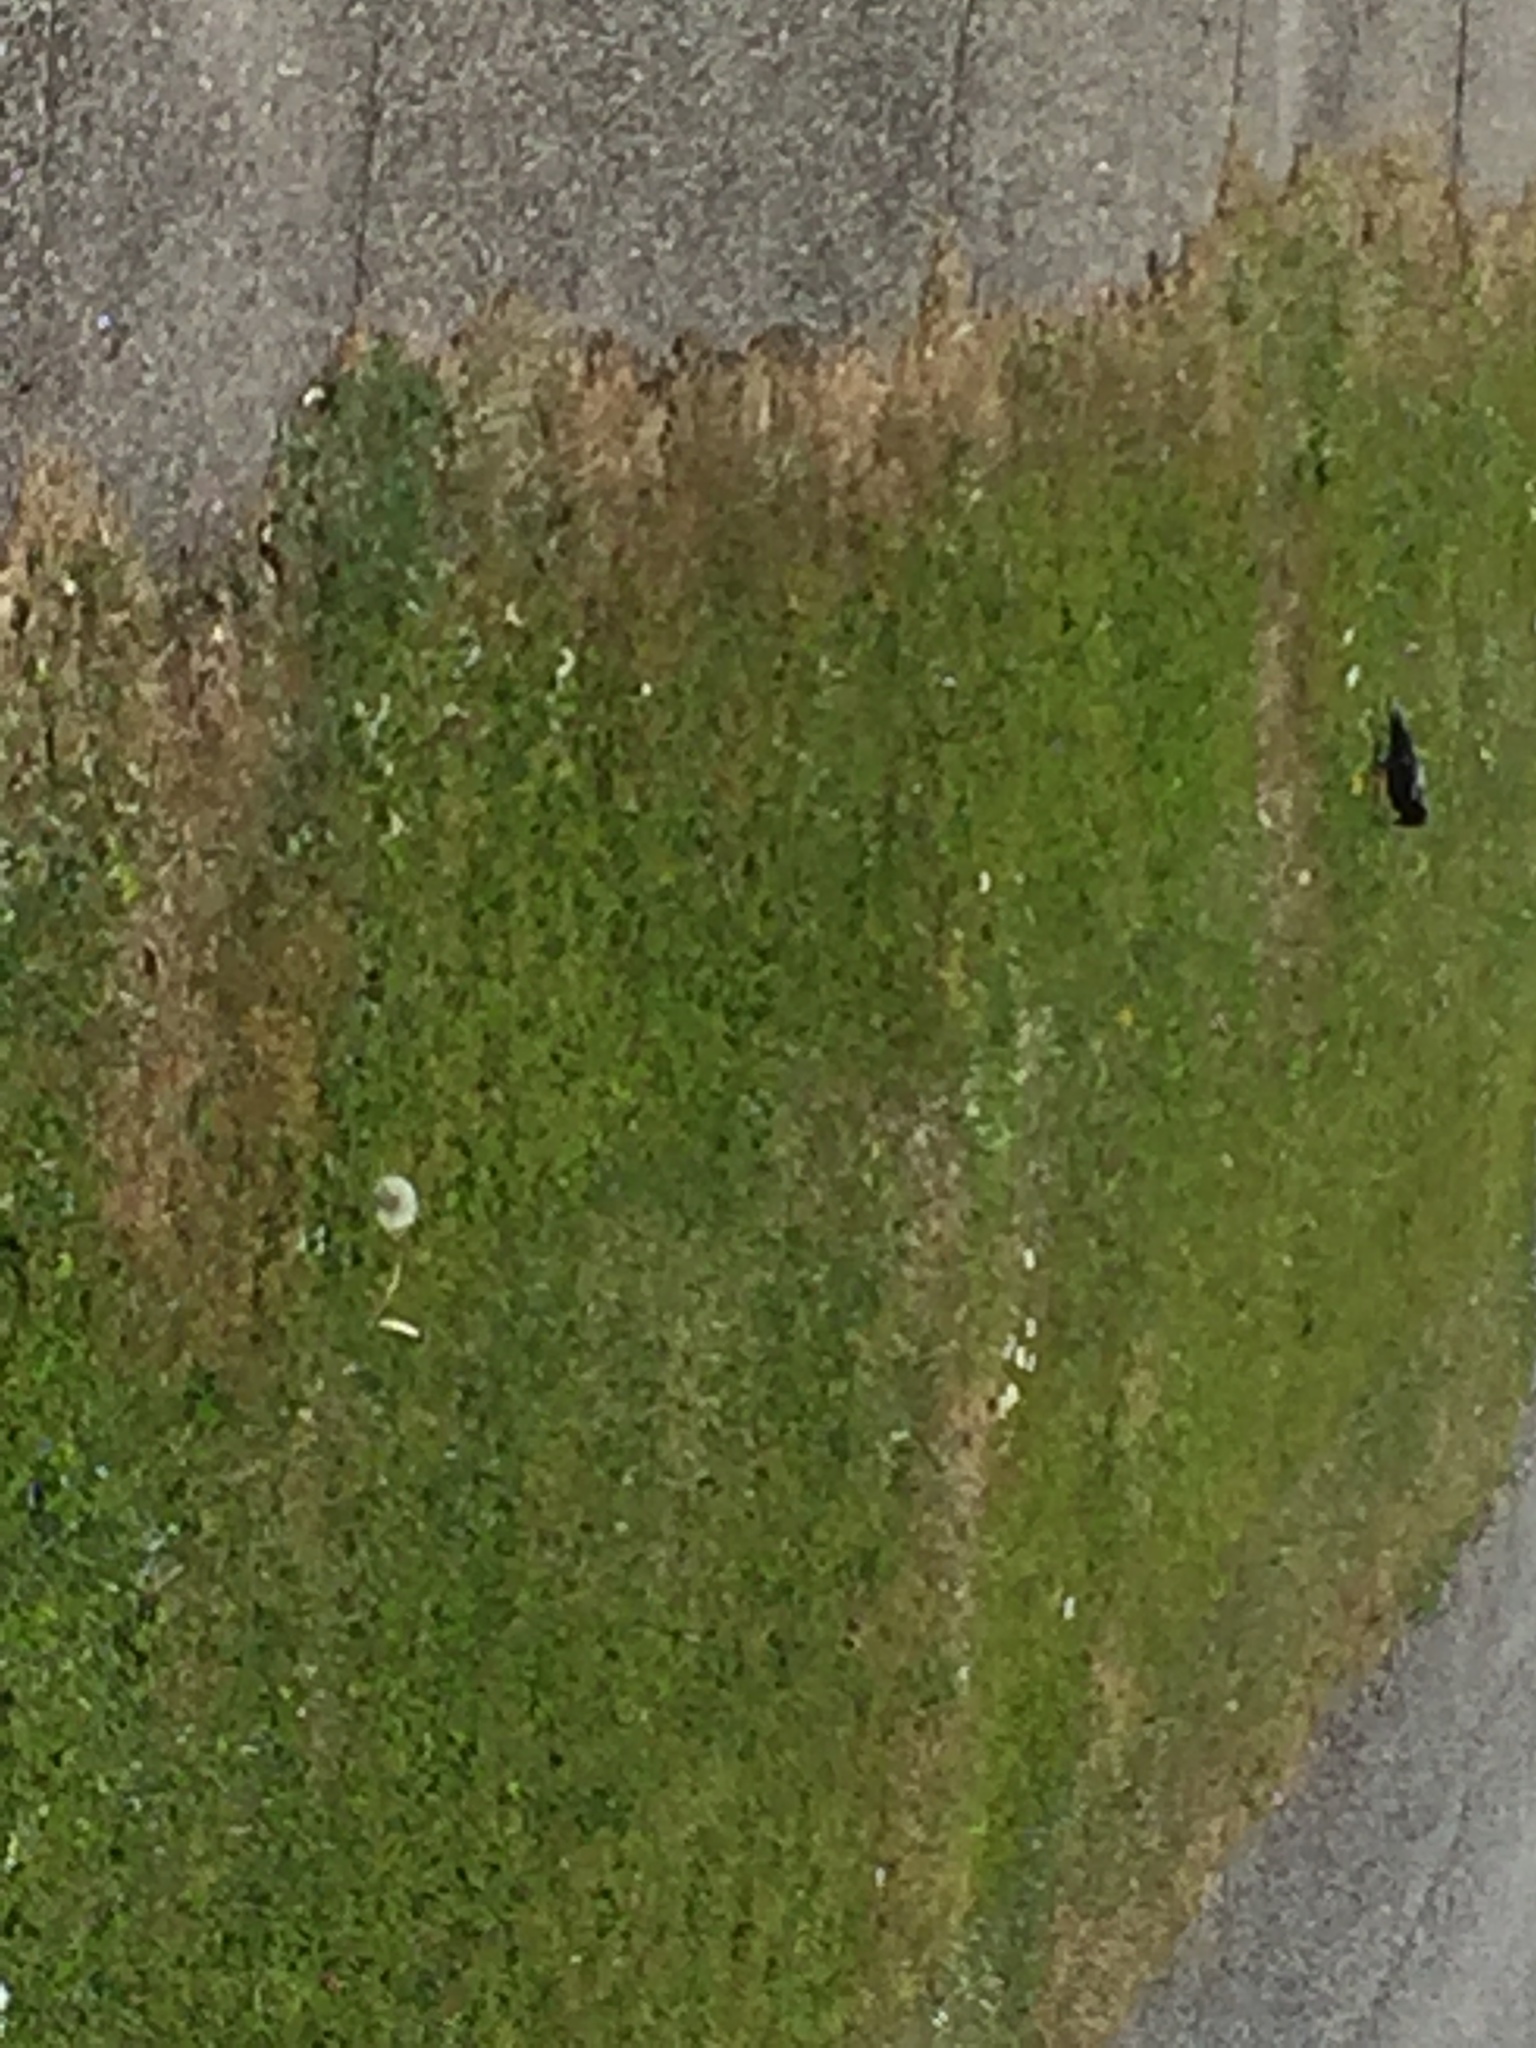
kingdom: Animalia
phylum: Chordata
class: Aves
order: Passeriformes
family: Sturnidae
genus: Sturnus
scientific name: Sturnus vulgaris
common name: Common starling
